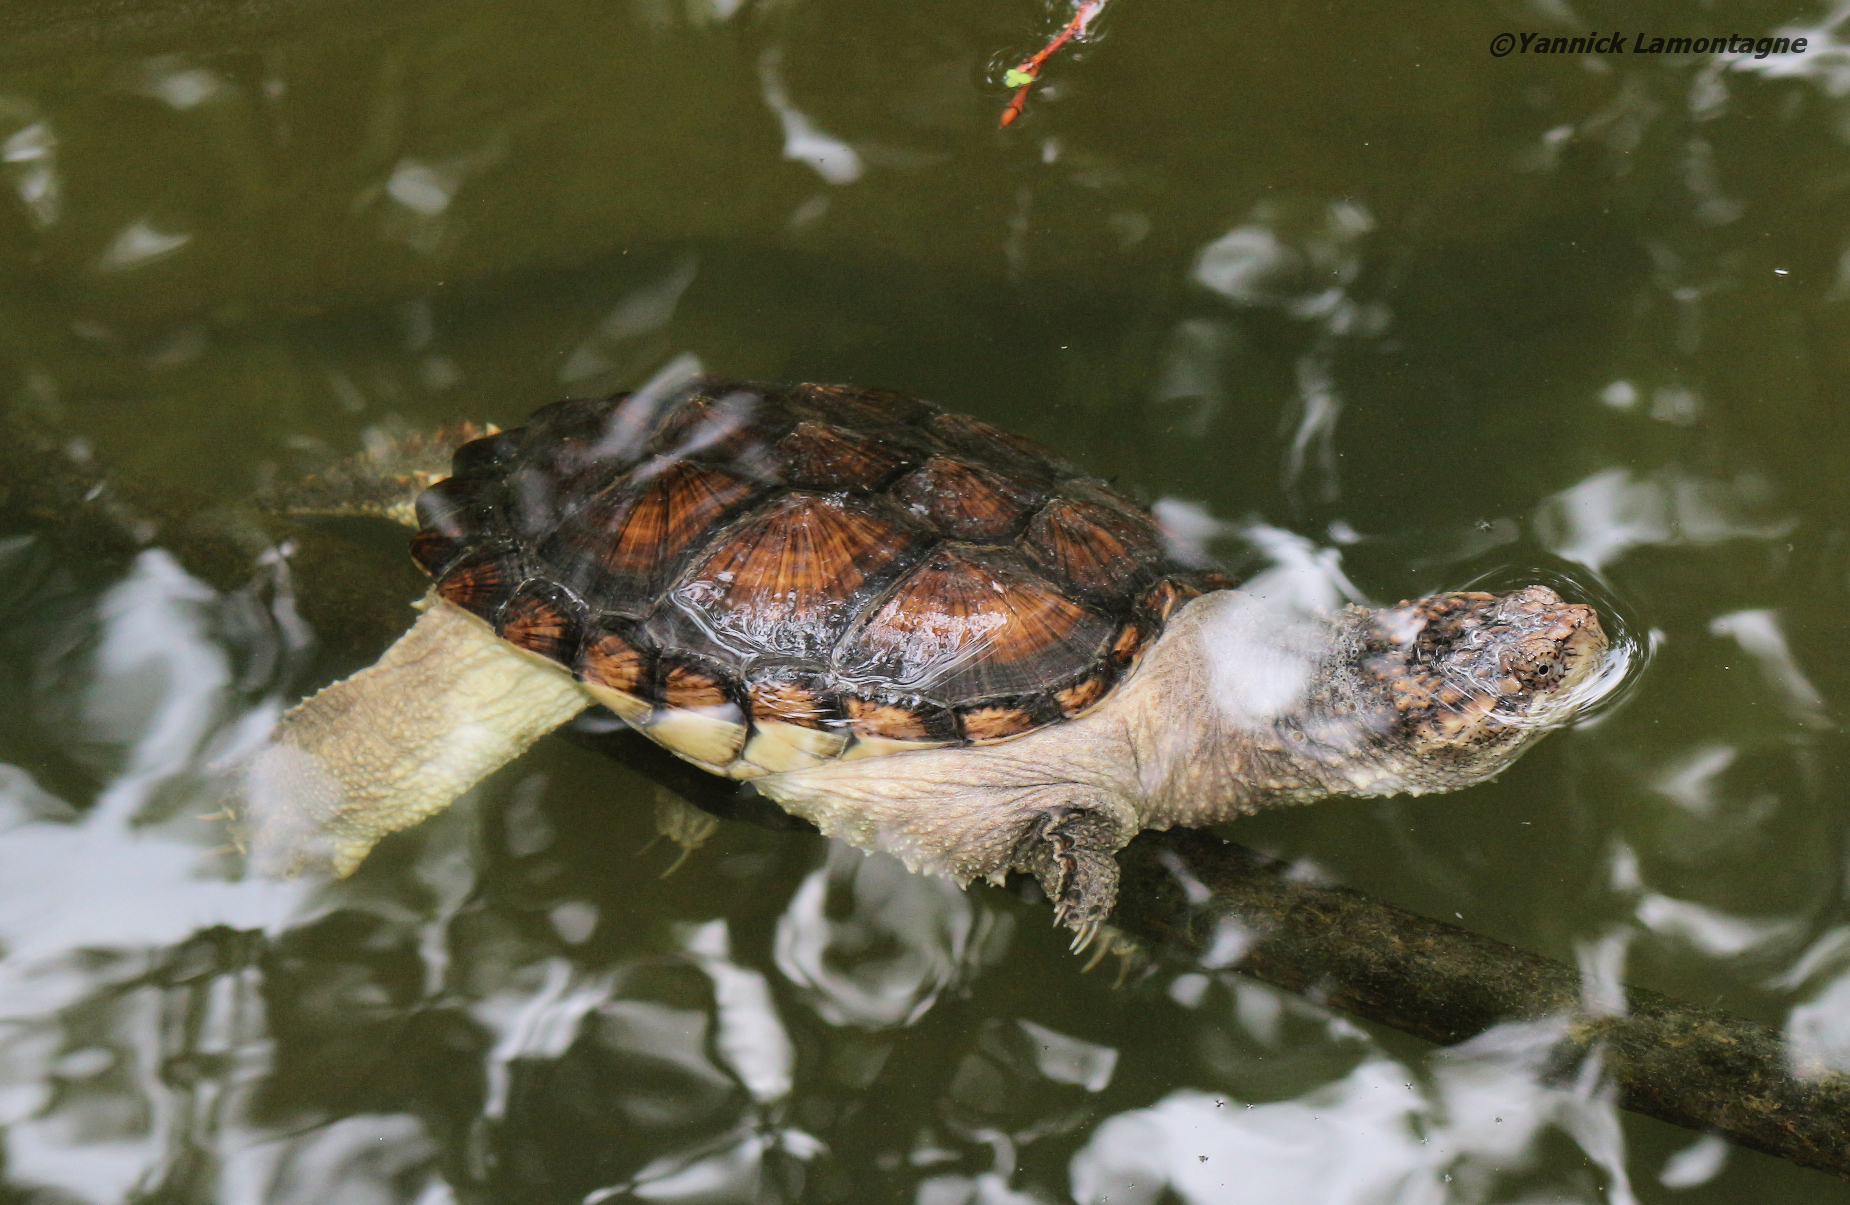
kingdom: Animalia
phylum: Chordata
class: Testudines
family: Chelydridae
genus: Chelydra
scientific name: Chelydra serpentina
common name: Common snapping turtle
